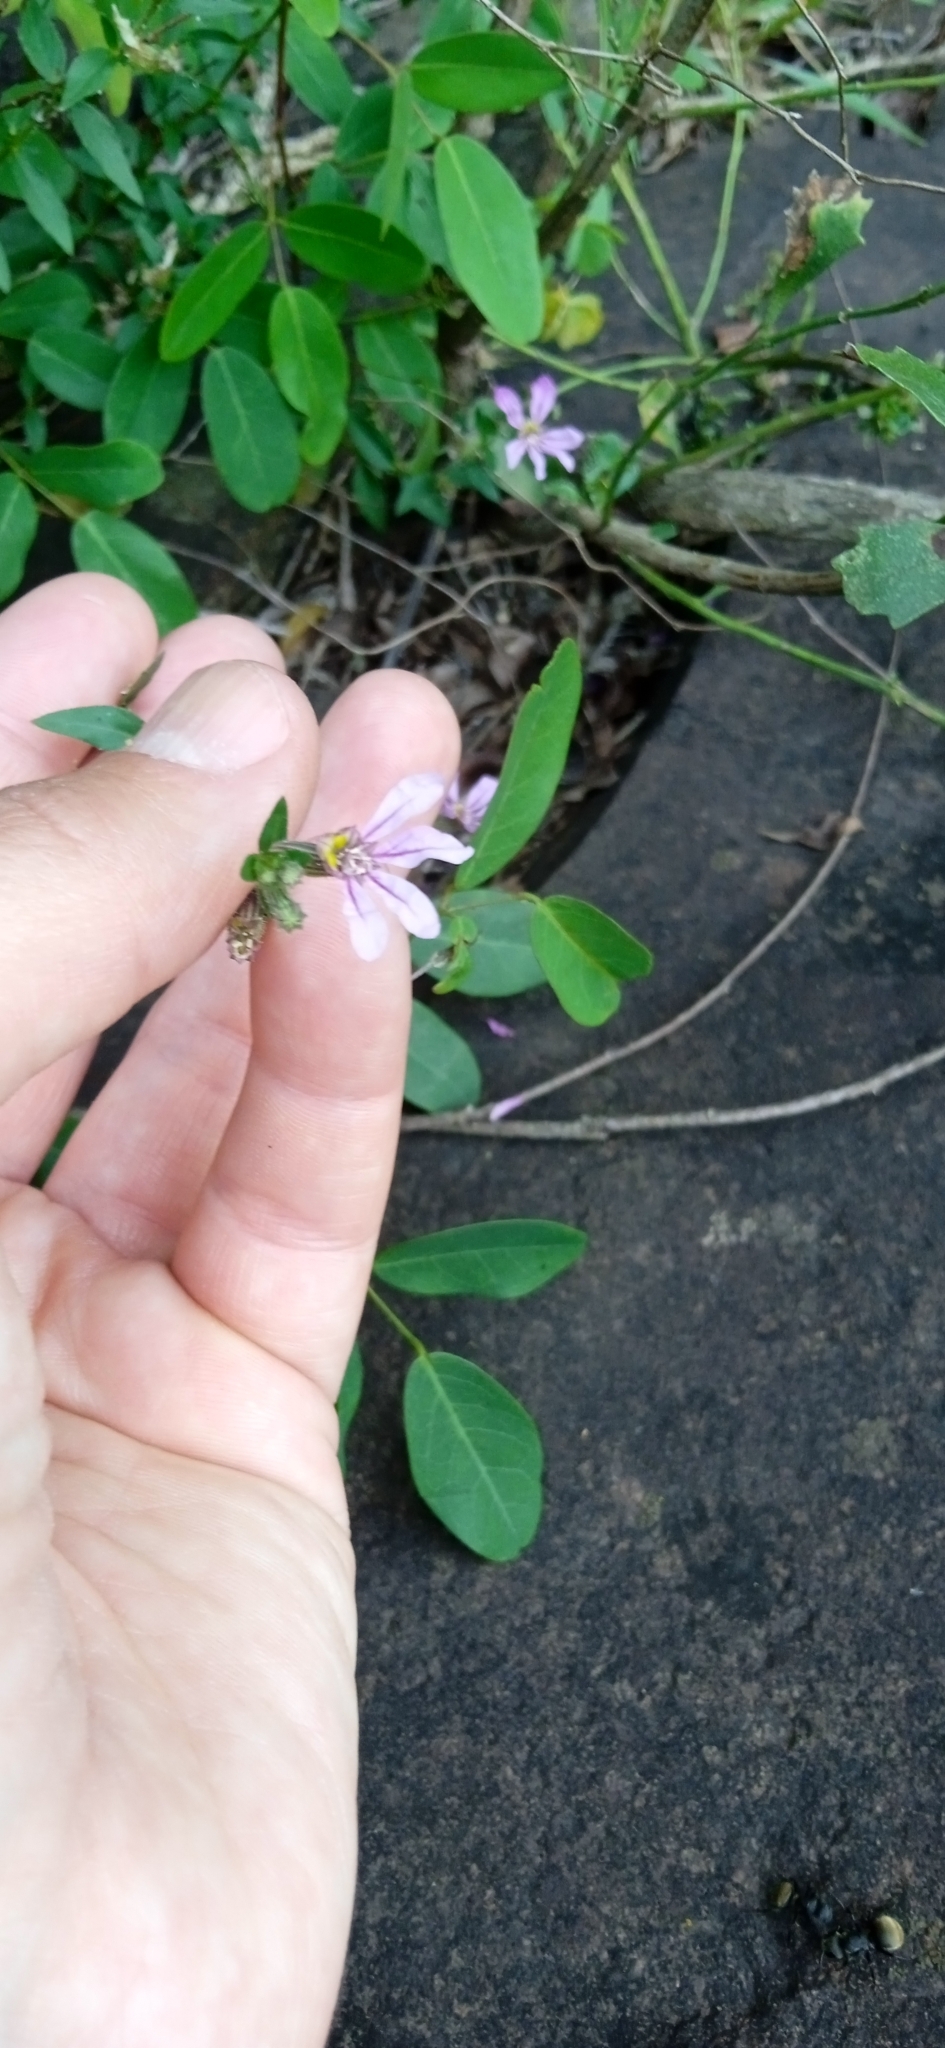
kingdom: Plantae
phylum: Tracheophyta
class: Magnoliopsida
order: Myrtales
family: Lythraceae
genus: Cuphea
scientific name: Cuphea glutinosa
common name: Sticky waxweed
